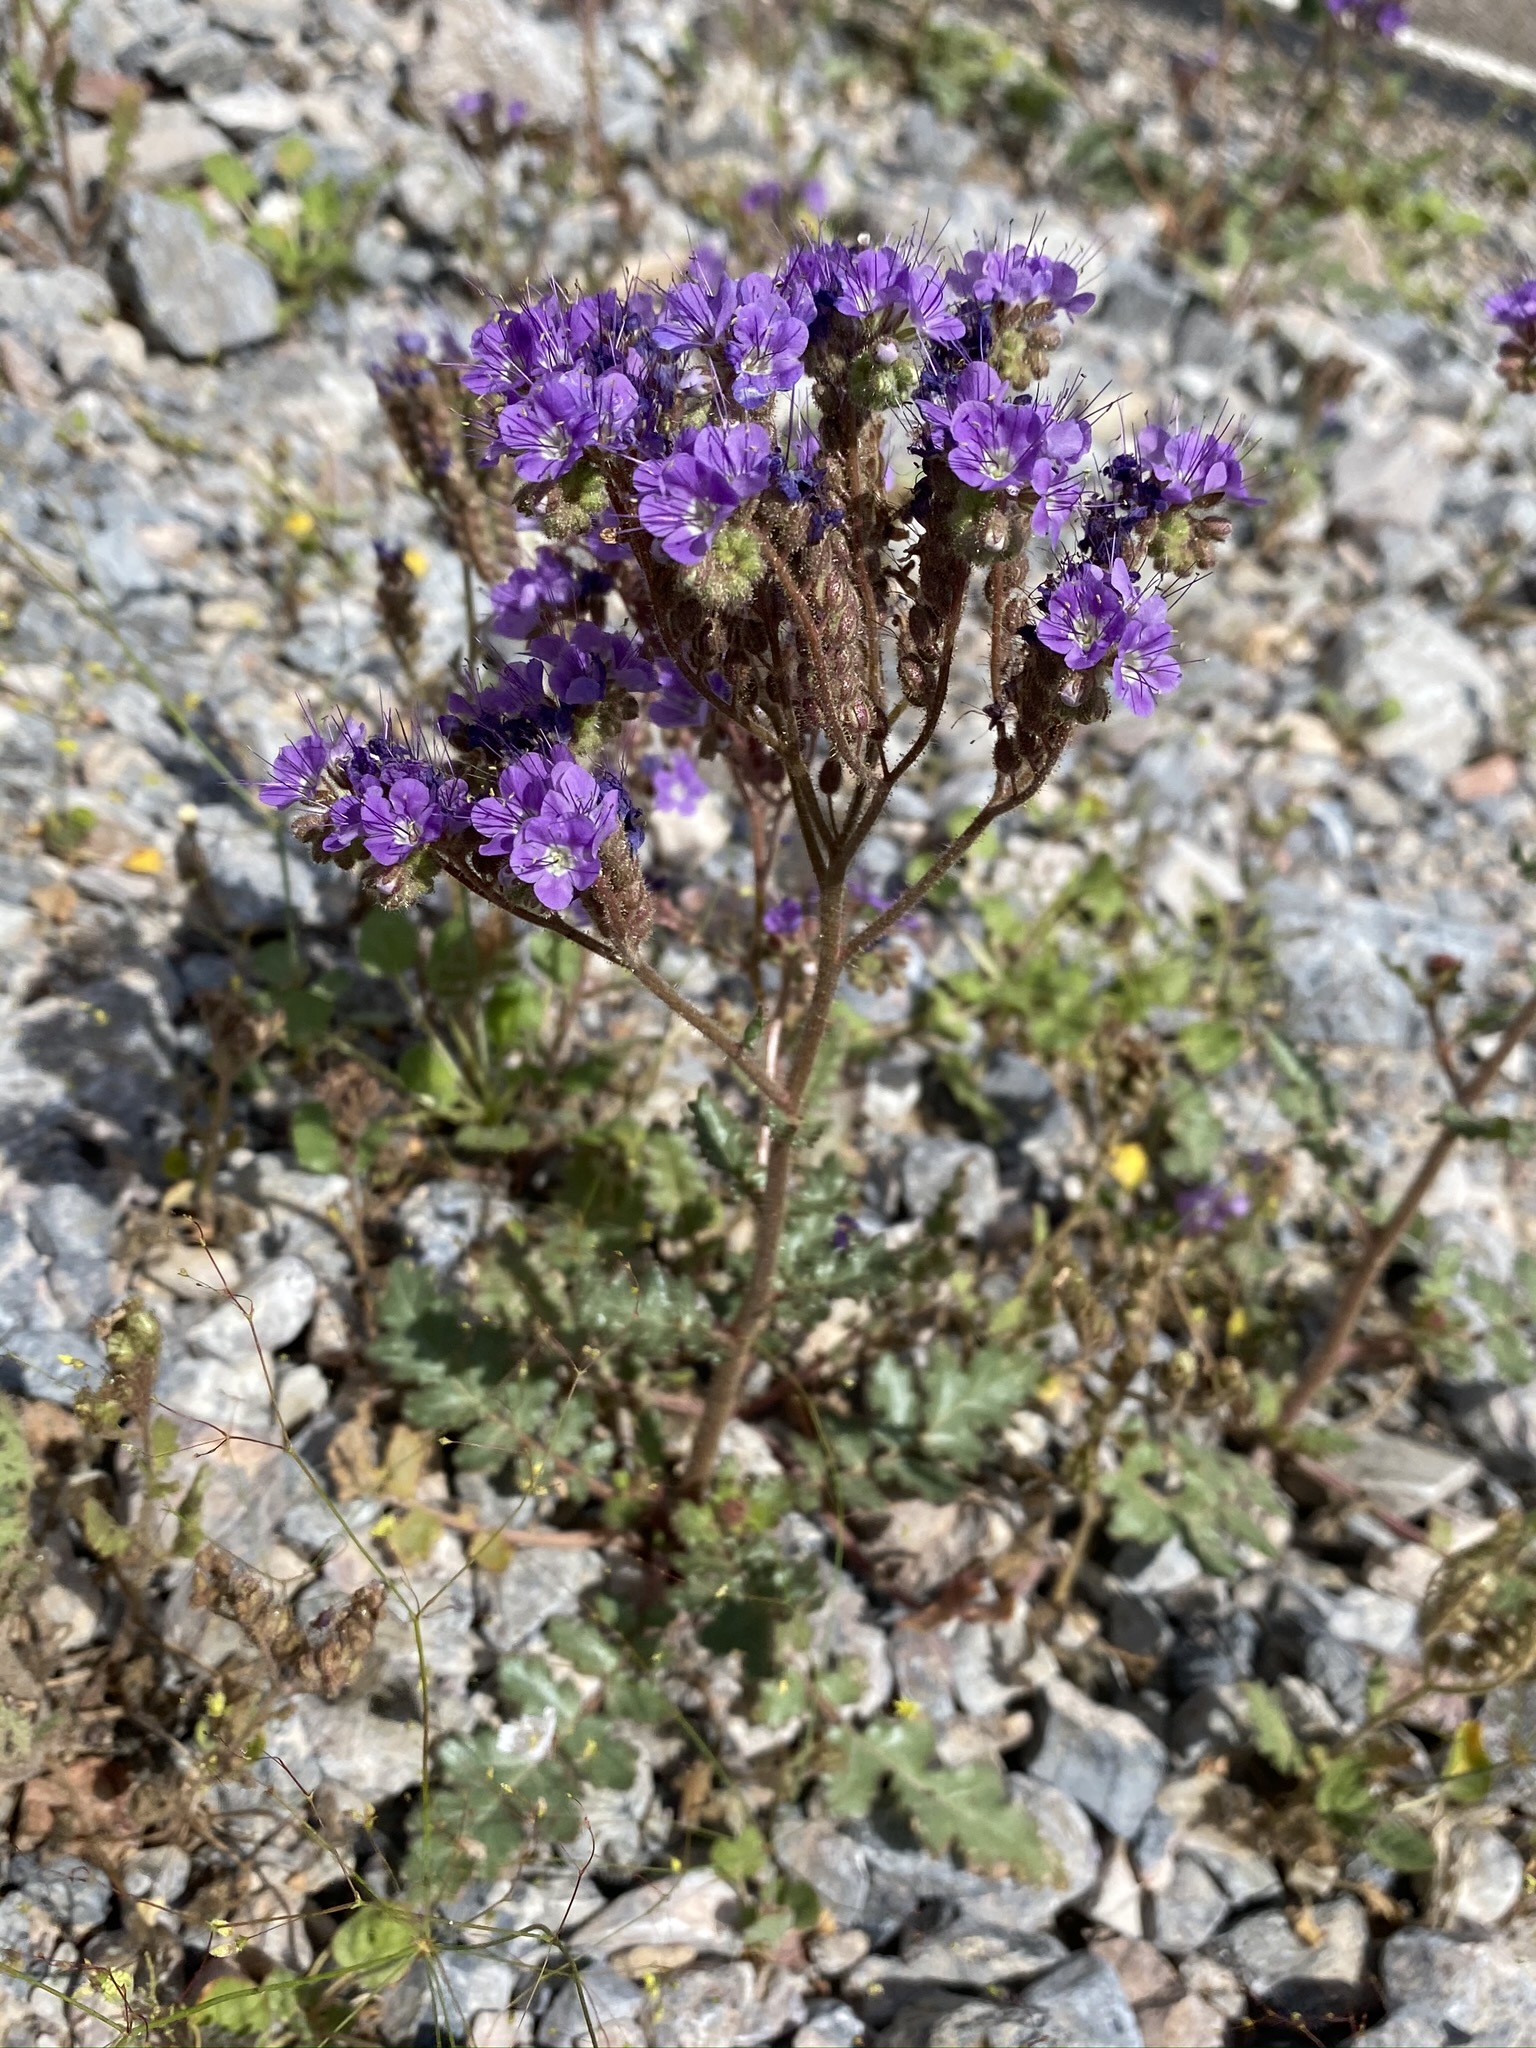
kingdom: Plantae
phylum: Tracheophyta
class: Magnoliopsida
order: Boraginales
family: Hydrophyllaceae
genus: Phacelia
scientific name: Phacelia crenulata
